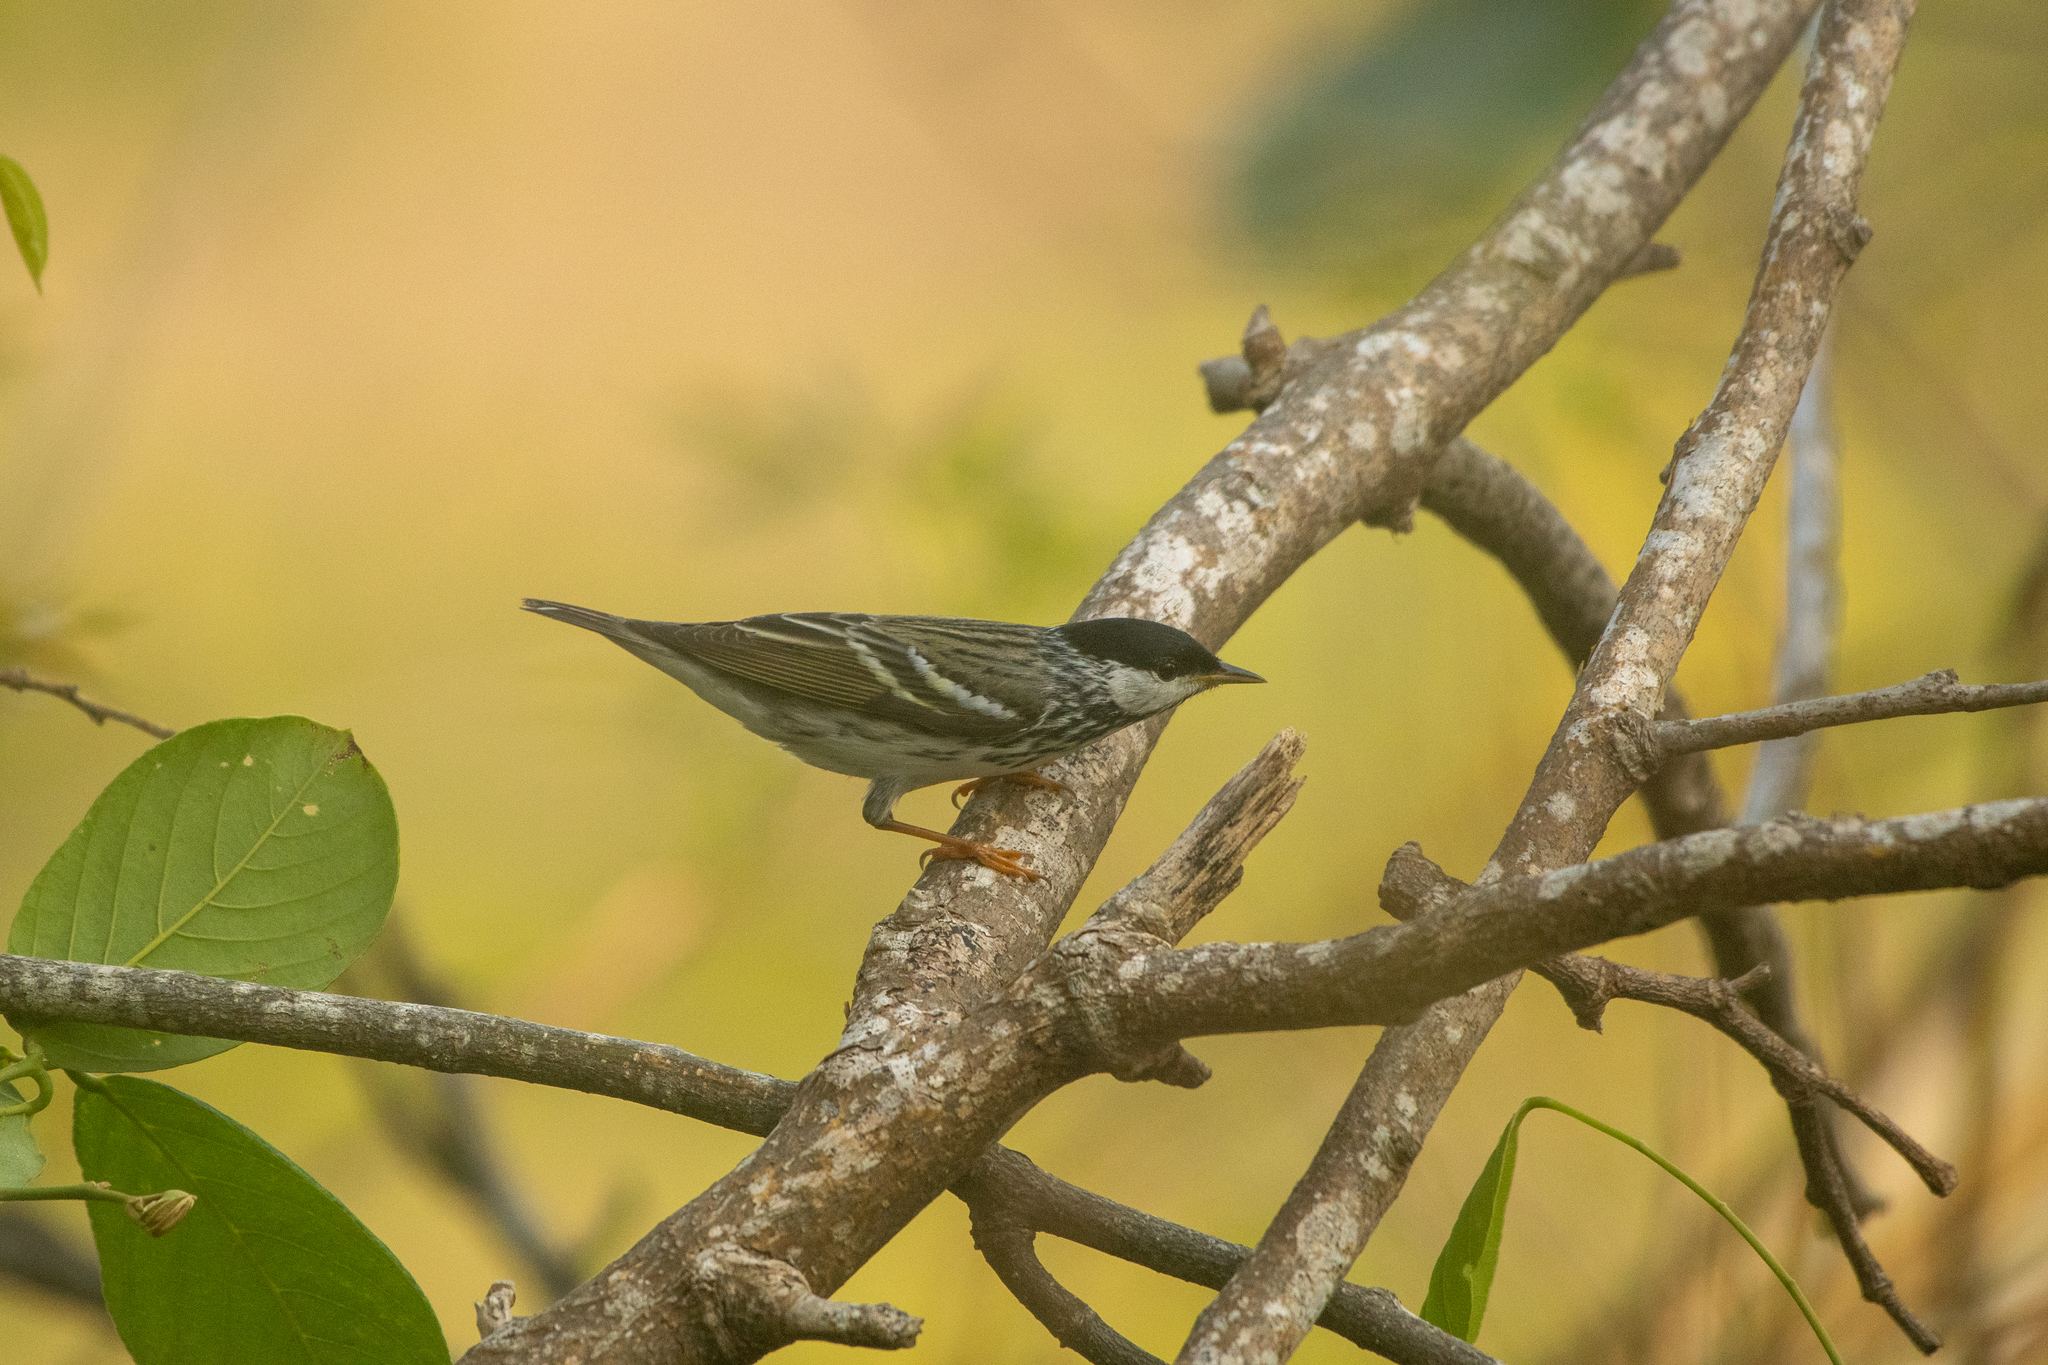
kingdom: Animalia
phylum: Chordata
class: Aves
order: Passeriformes
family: Parulidae
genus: Setophaga
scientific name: Setophaga striata
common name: Blackpoll warbler
